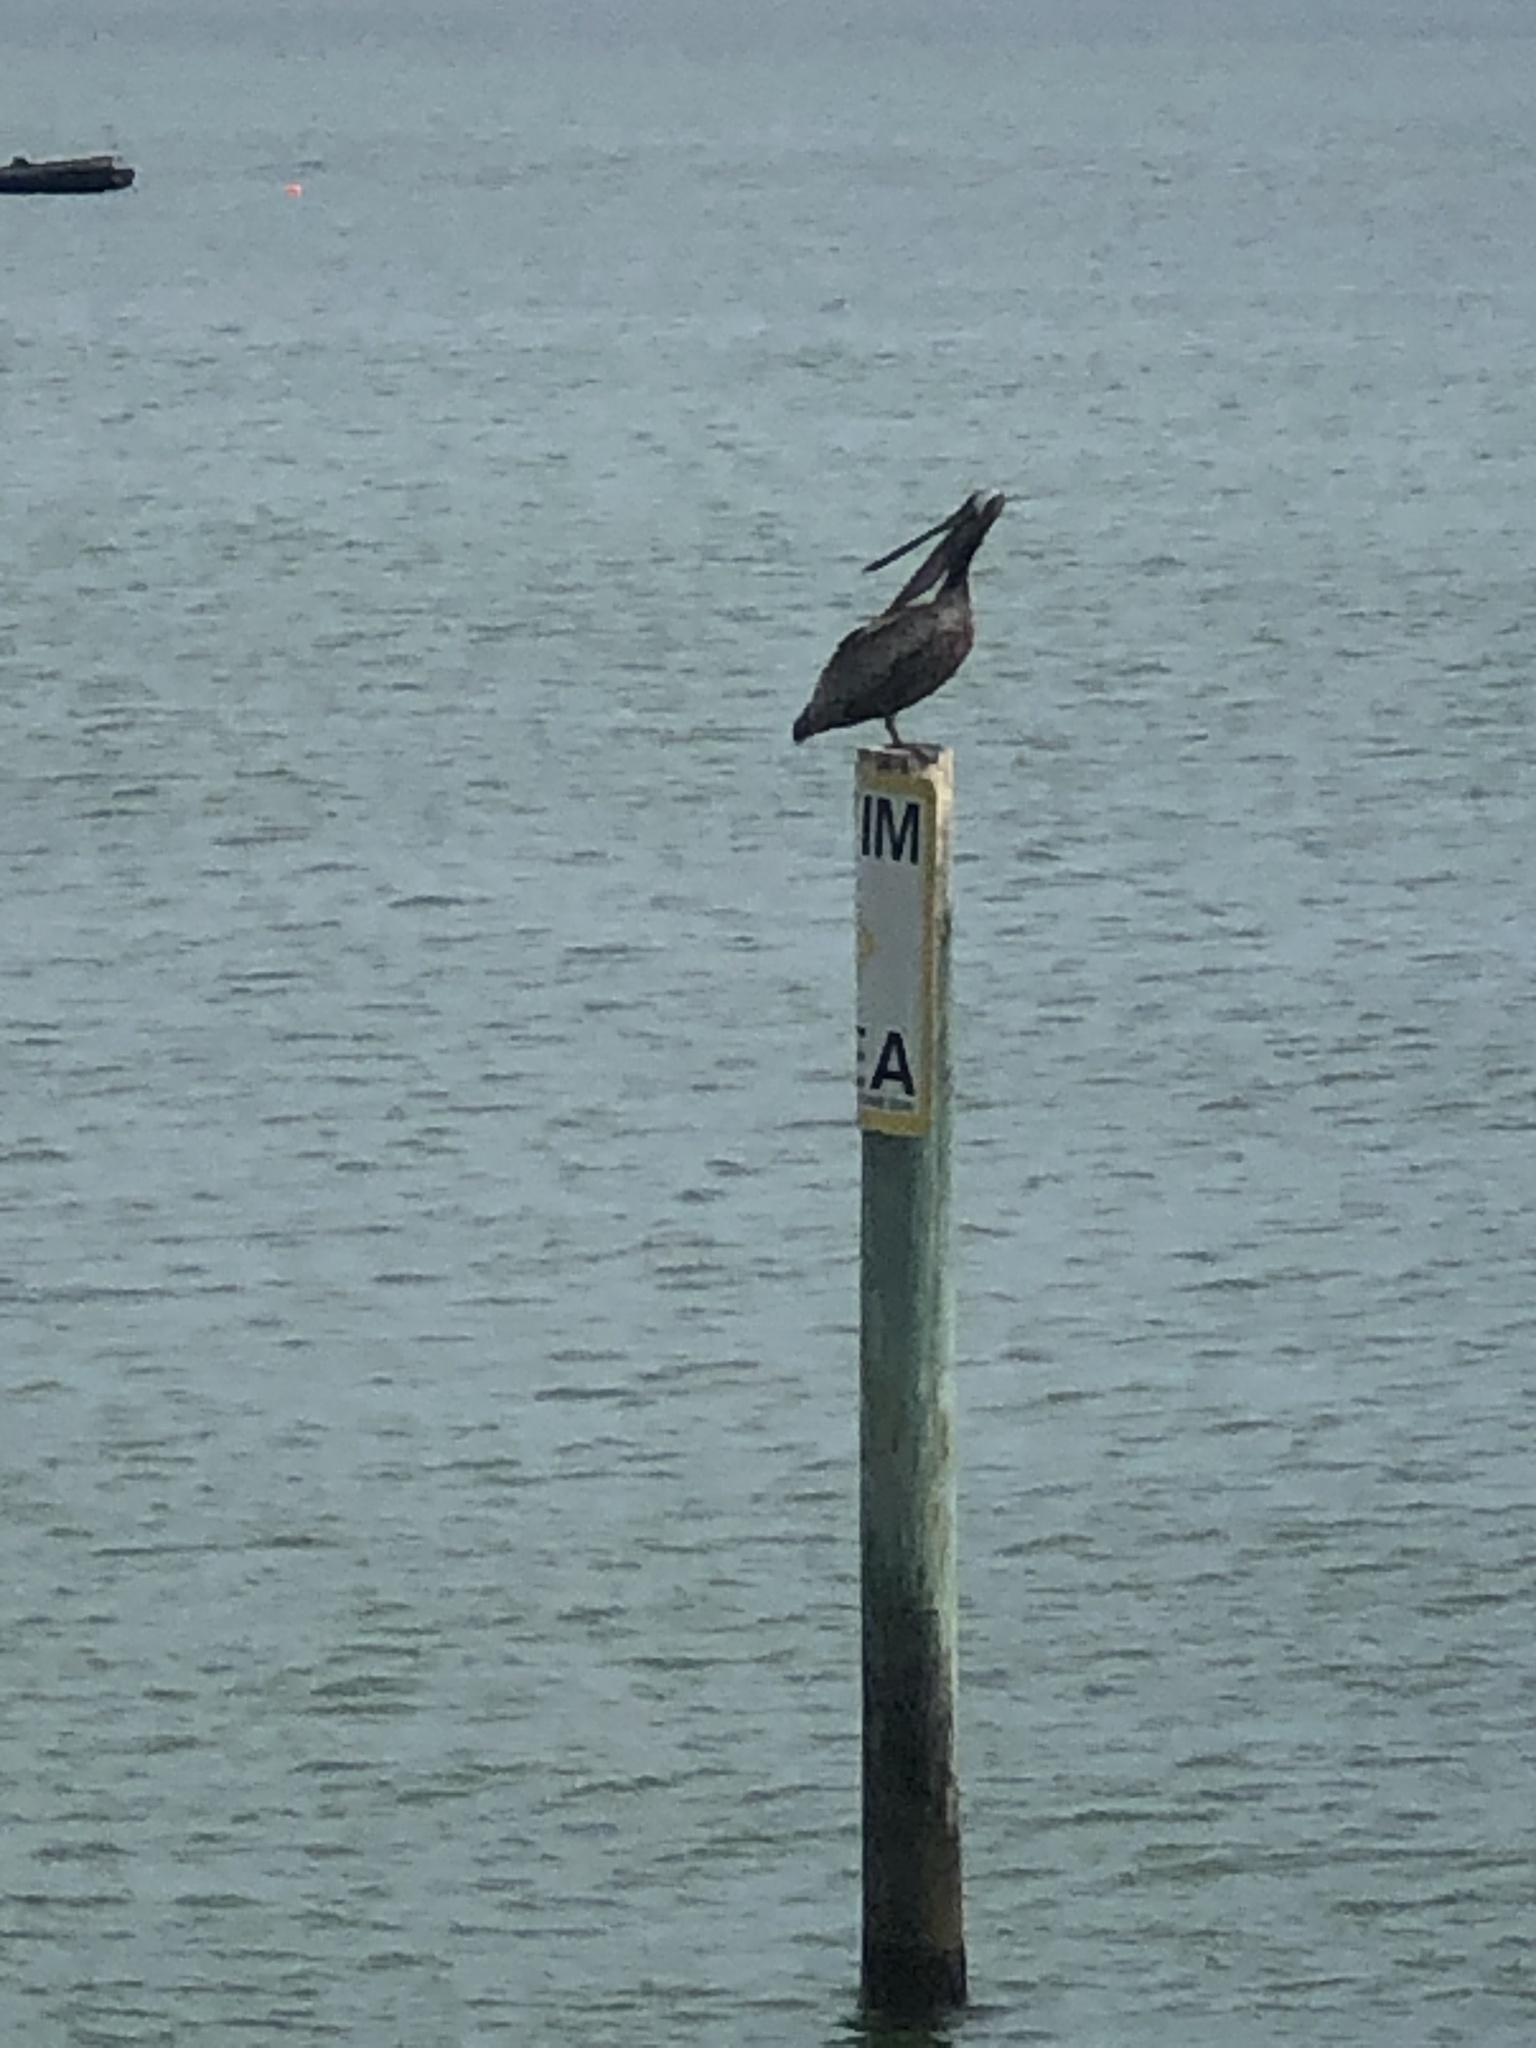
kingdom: Animalia
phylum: Chordata
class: Aves
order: Pelecaniformes
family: Pelecanidae
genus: Pelecanus
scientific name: Pelecanus occidentalis
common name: Brown pelican
